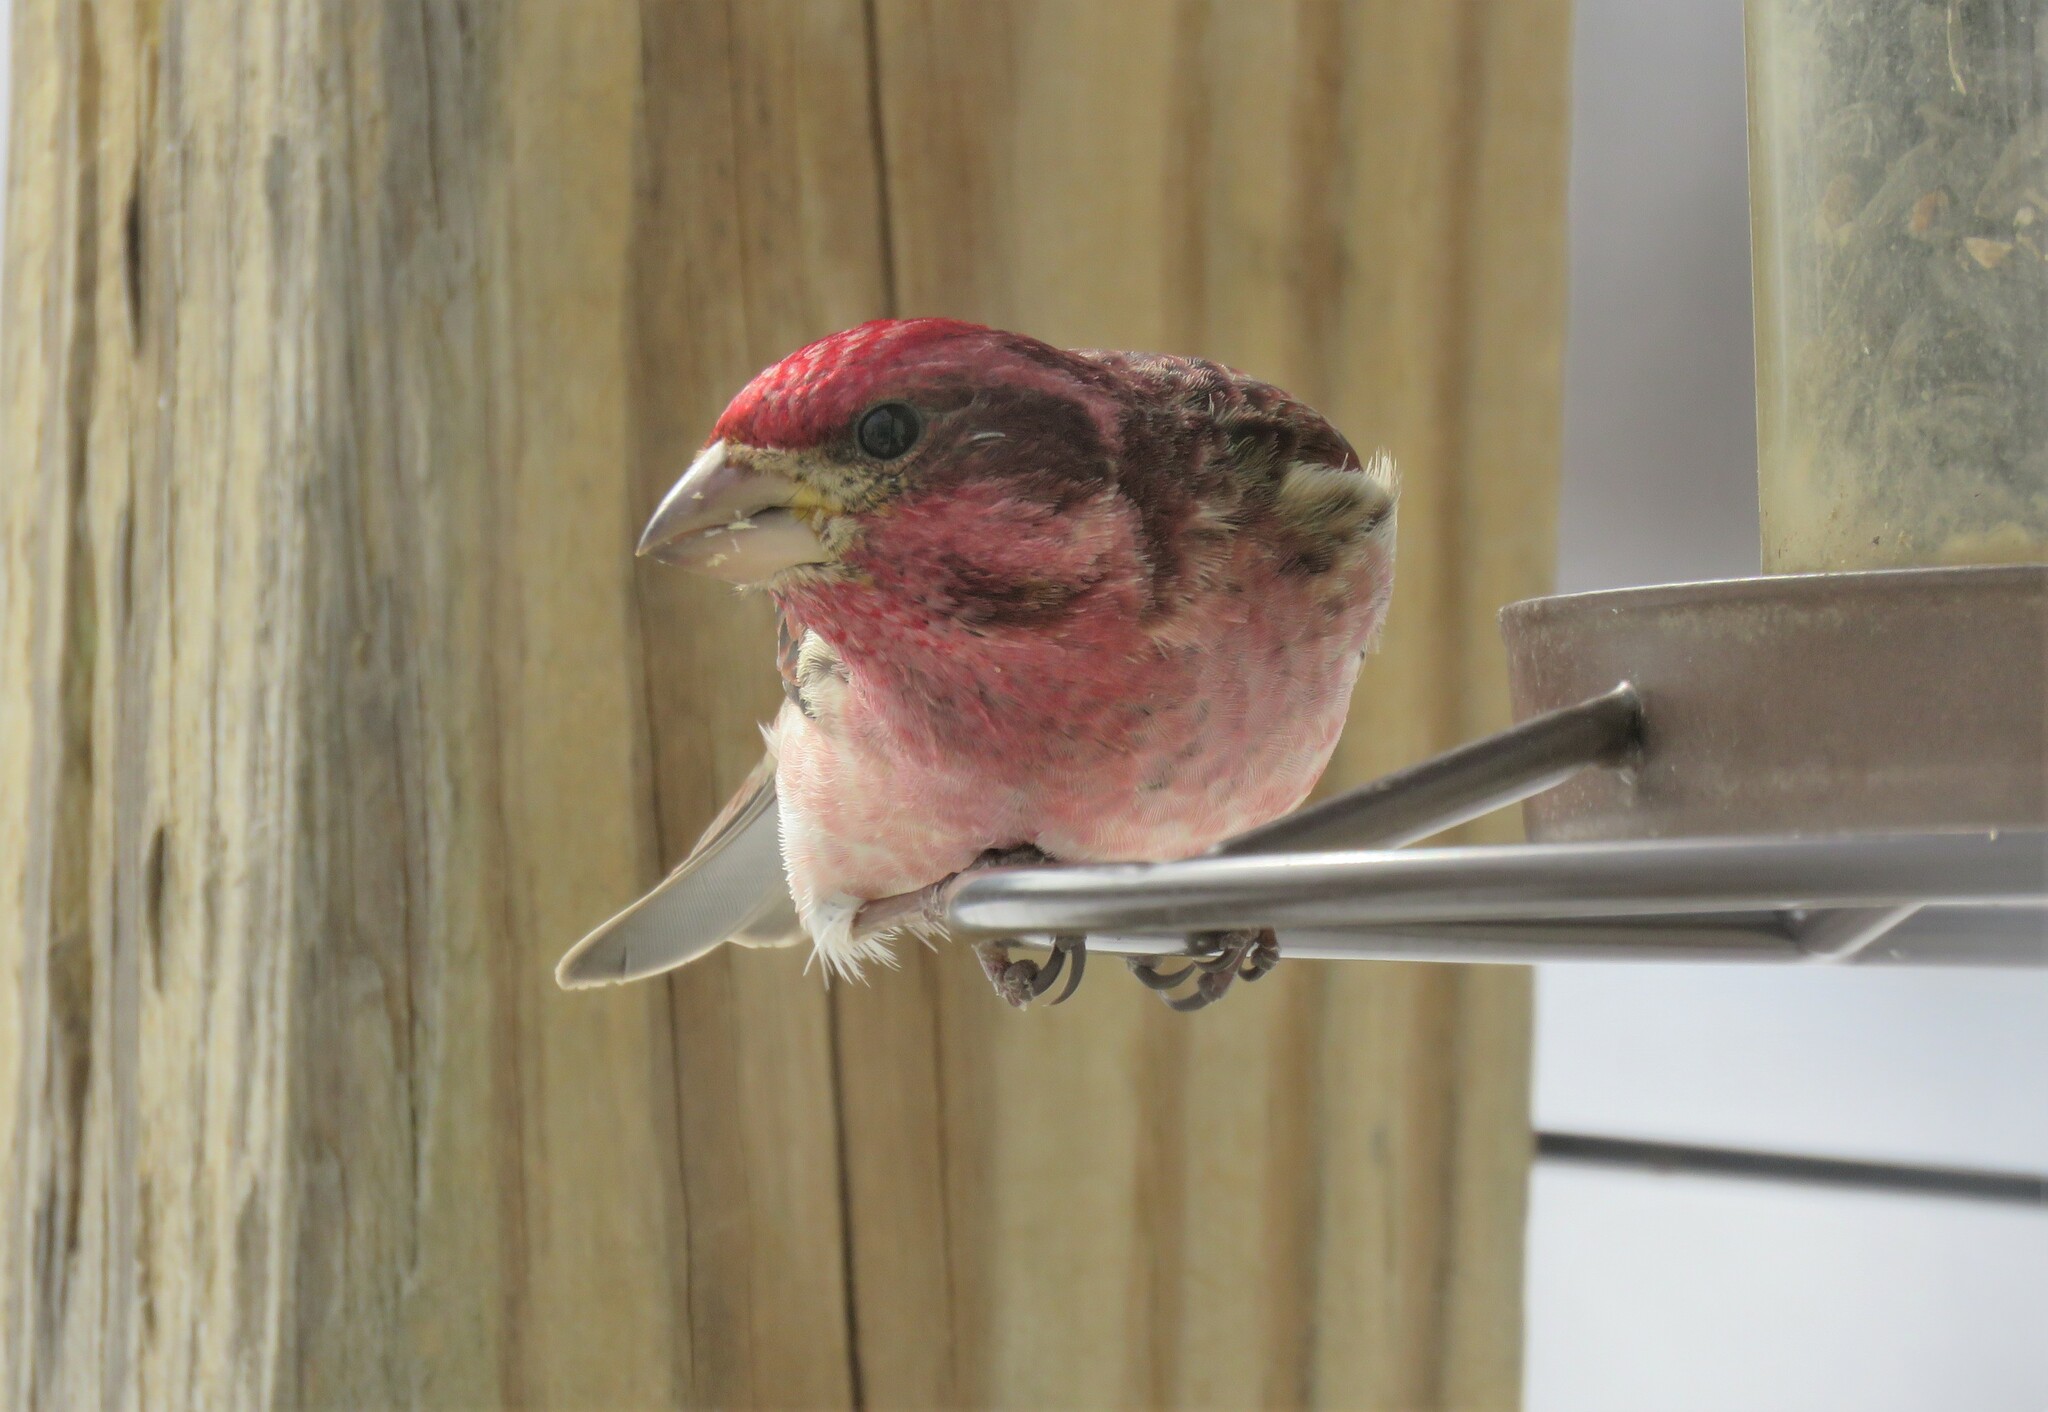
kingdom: Animalia
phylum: Chordata
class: Aves
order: Passeriformes
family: Fringillidae
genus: Haemorhous
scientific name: Haemorhous purpureus
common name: Purple finch
